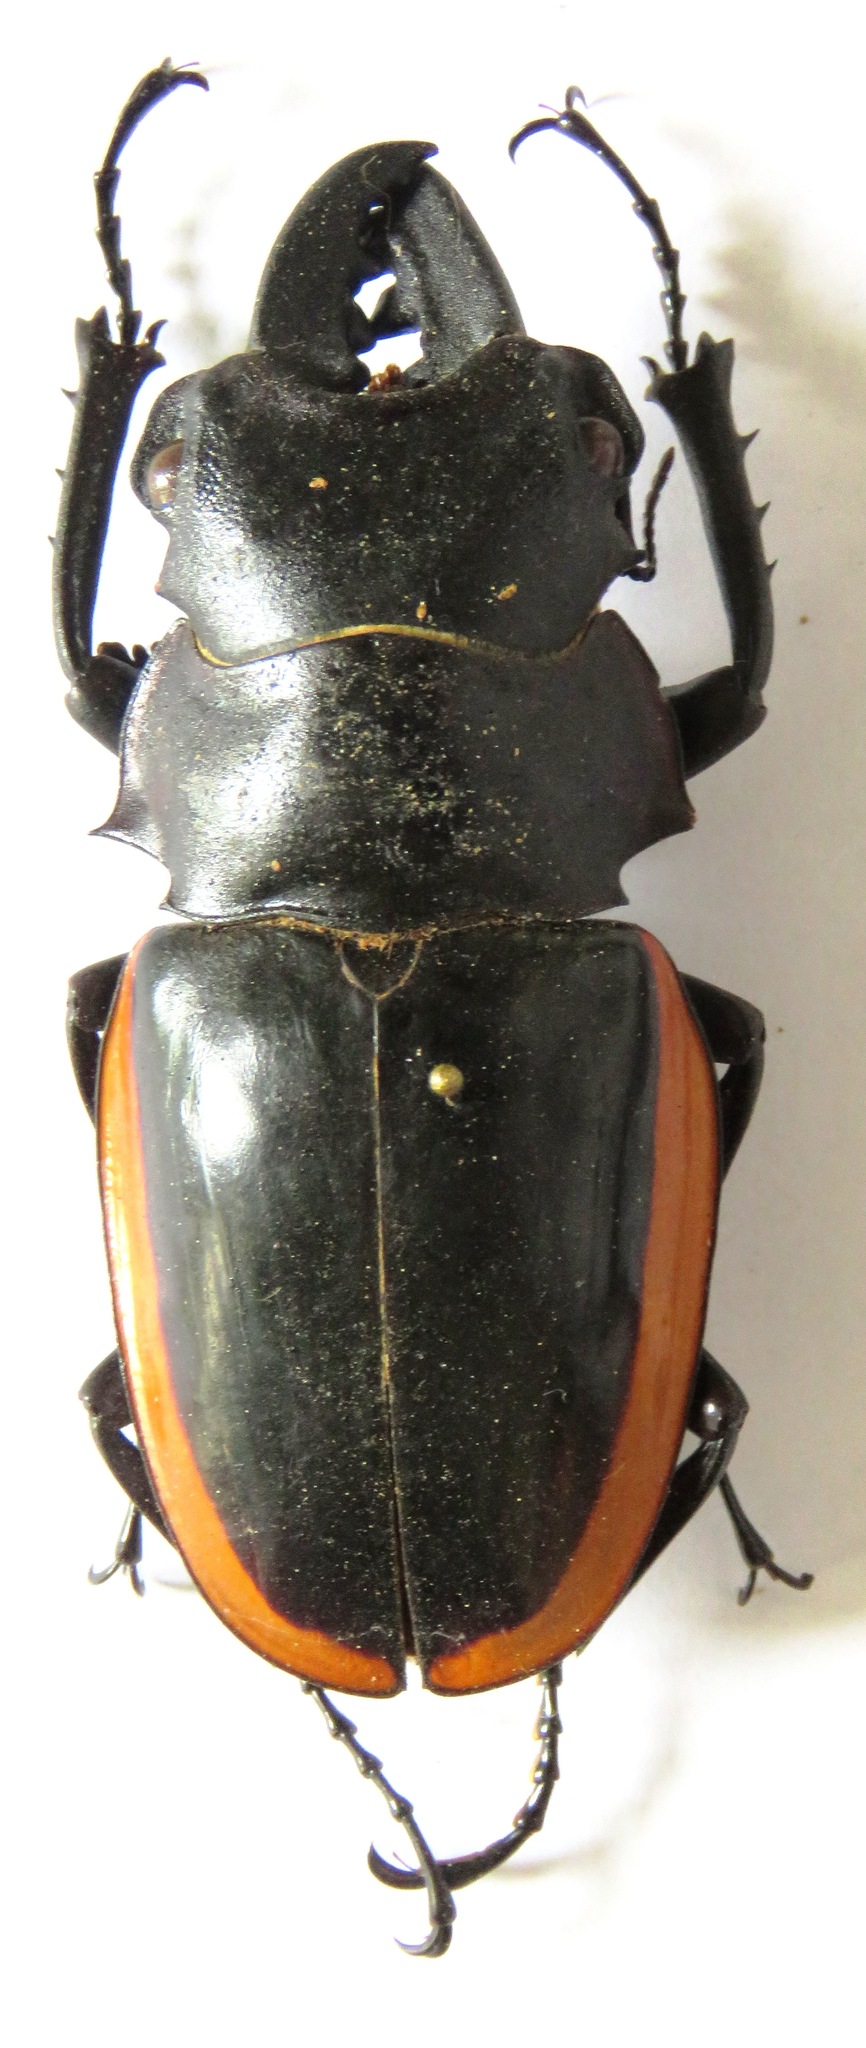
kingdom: Animalia
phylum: Arthropoda
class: Insecta
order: Coleoptera
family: Lucanidae
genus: Odontolabis
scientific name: Odontolabis cuvera
